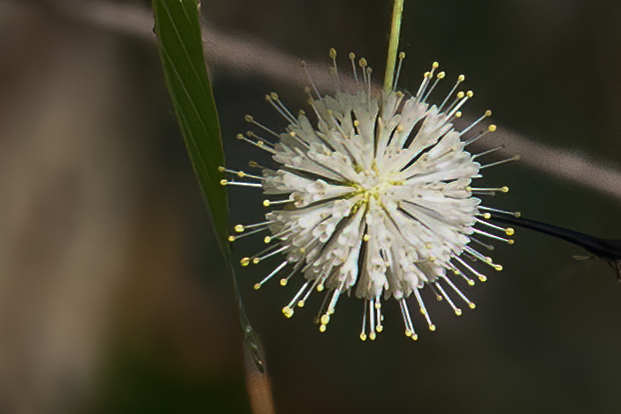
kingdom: Plantae
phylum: Tracheophyta
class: Magnoliopsida
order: Gentianales
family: Rubiaceae
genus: Cephalanthus
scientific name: Cephalanthus occidentalis
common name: Button-willow
